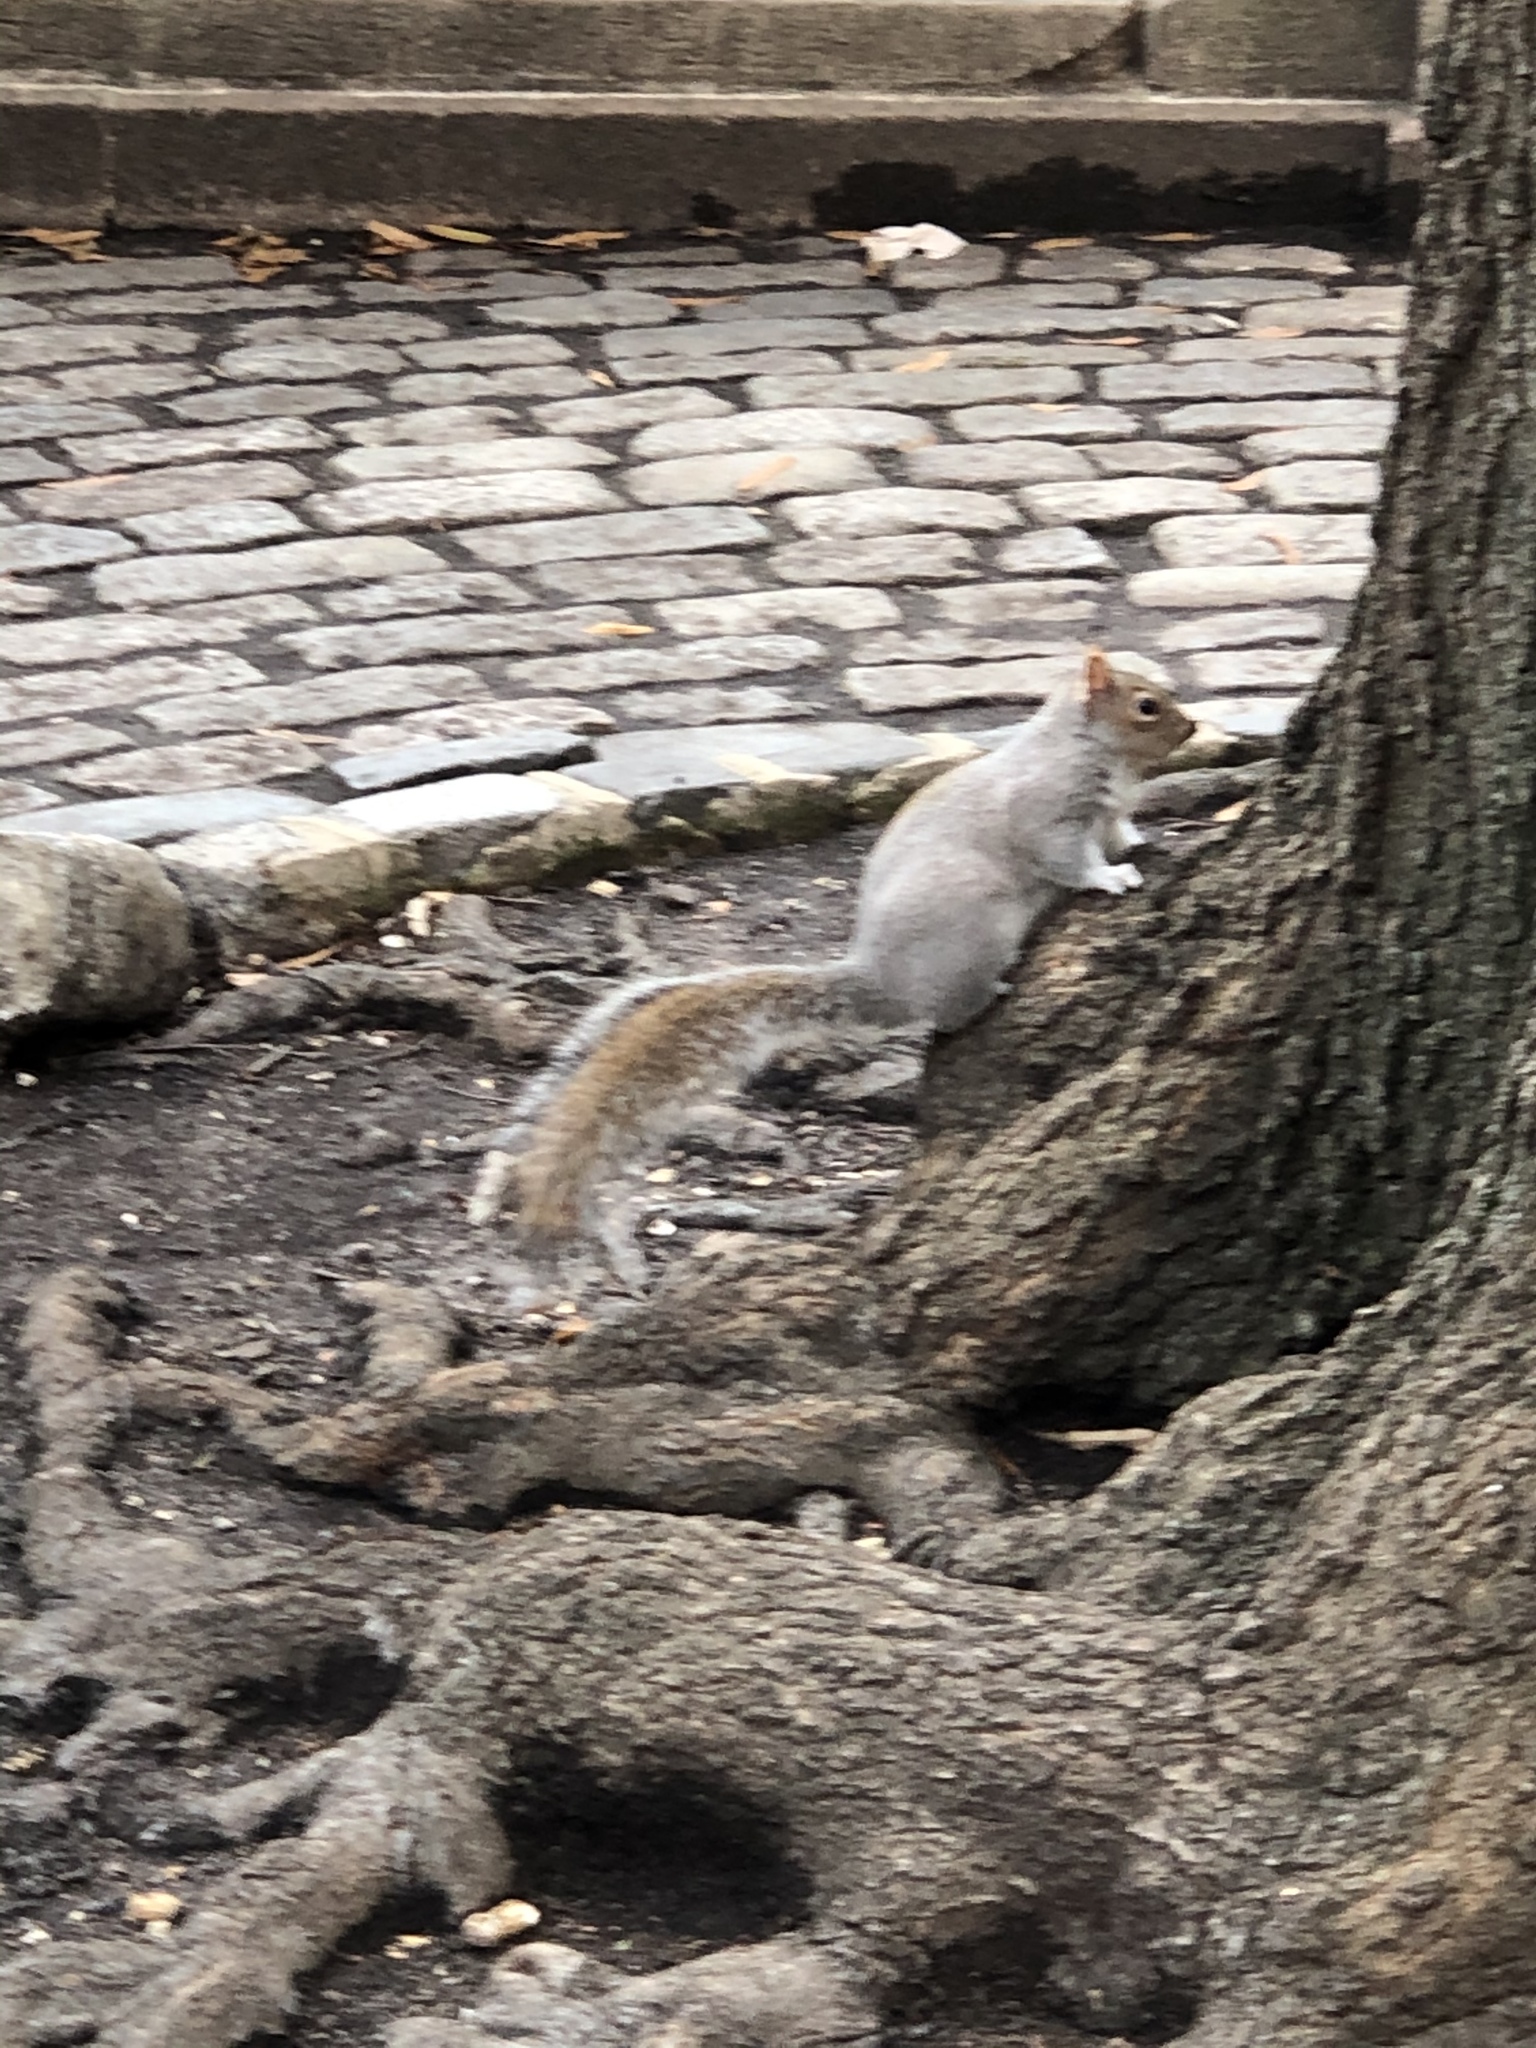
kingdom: Animalia
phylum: Chordata
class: Mammalia
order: Rodentia
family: Sciuridae
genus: Sciurus
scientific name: Sciurus carolinensis
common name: Eastern gray squirrel
